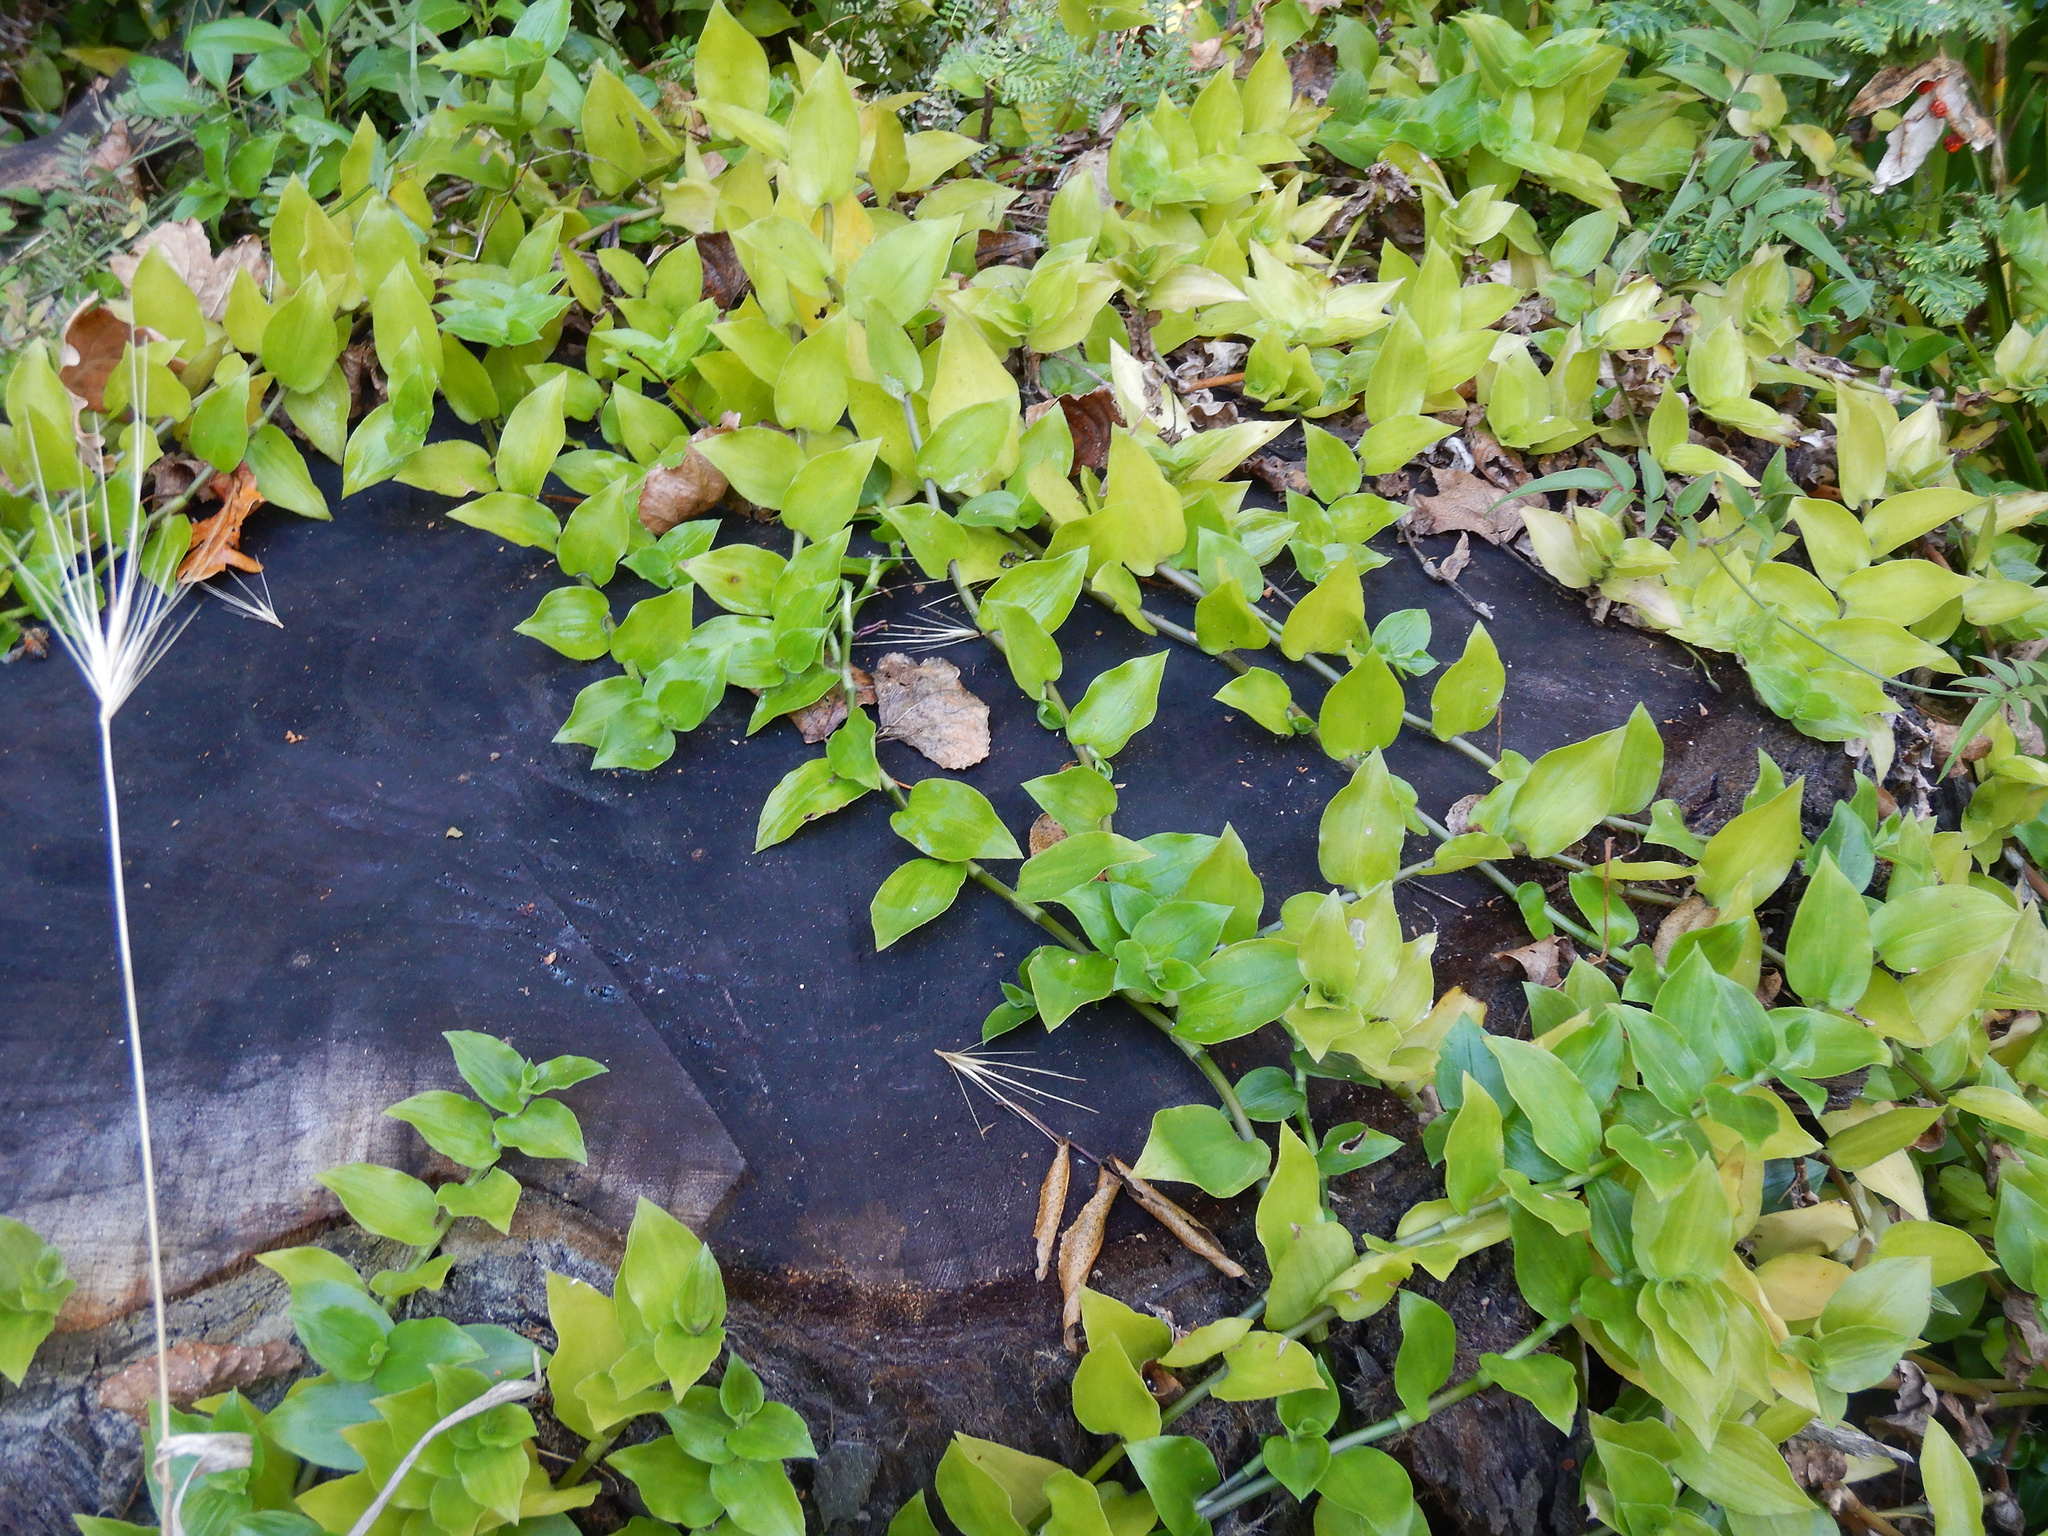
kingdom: Plantae
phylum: Tracheophyta
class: Liliopsida
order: Commelinales
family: Commelinaceae
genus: Tradescantia
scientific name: Tradescantia fluminensis
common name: Wandering-jew
